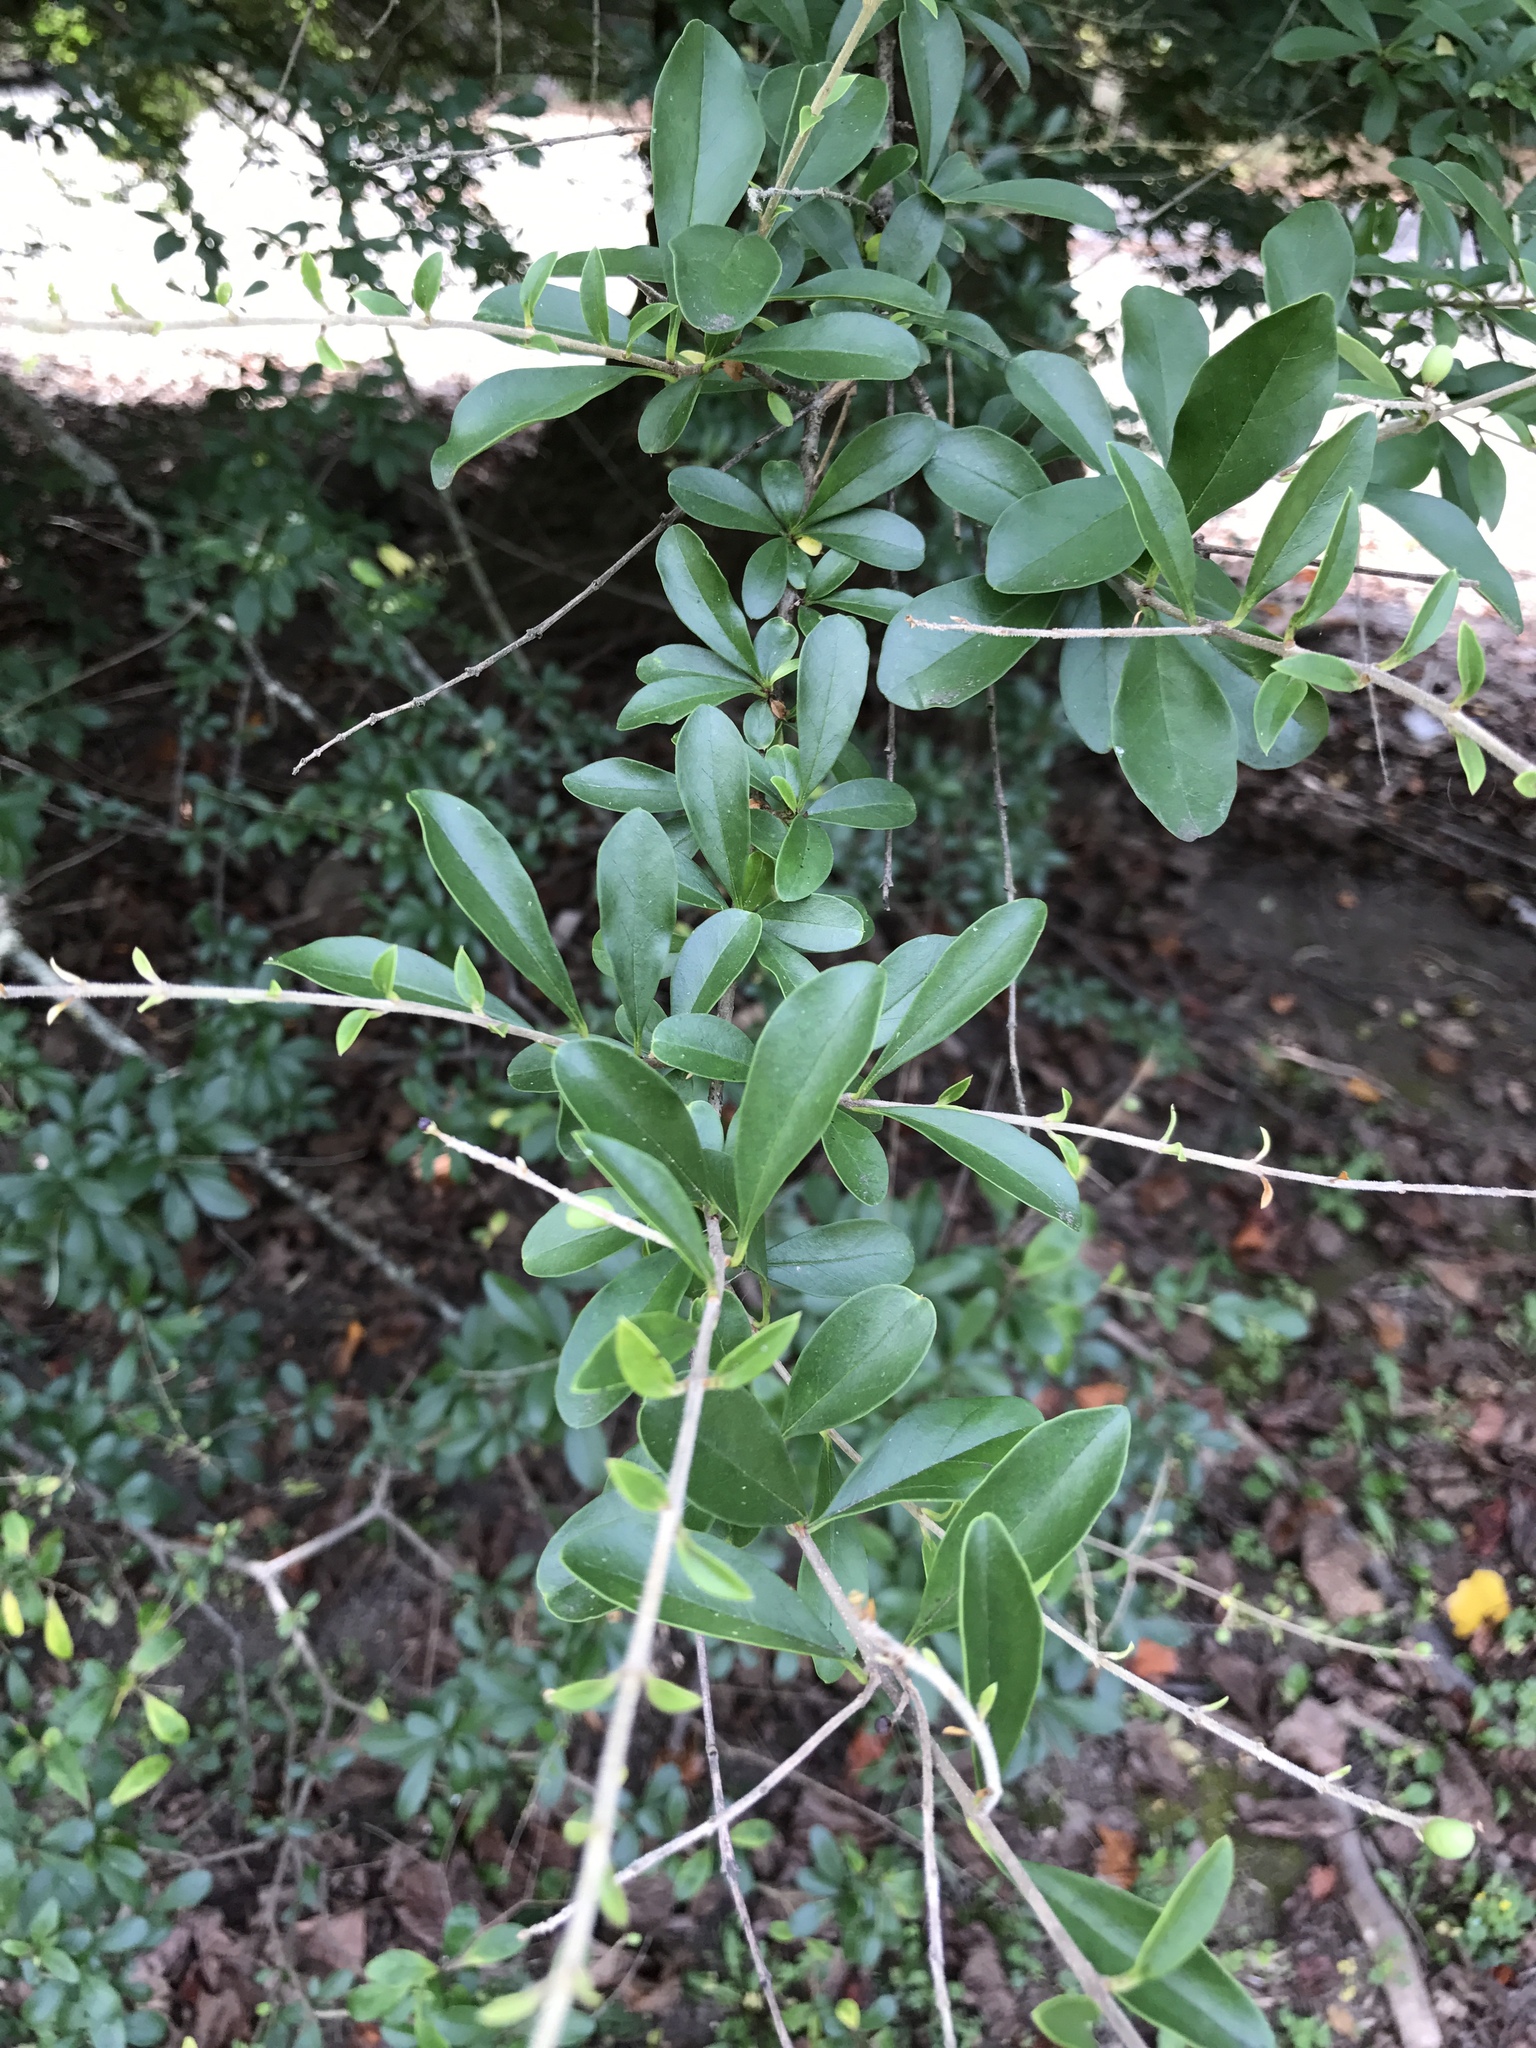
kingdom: Plantae
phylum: Tracheophyta
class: Magnoliopsida
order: Lamiales
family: Oleaceae
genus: Ligustrum
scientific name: Ligustrum obtusifolium
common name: Border privet
